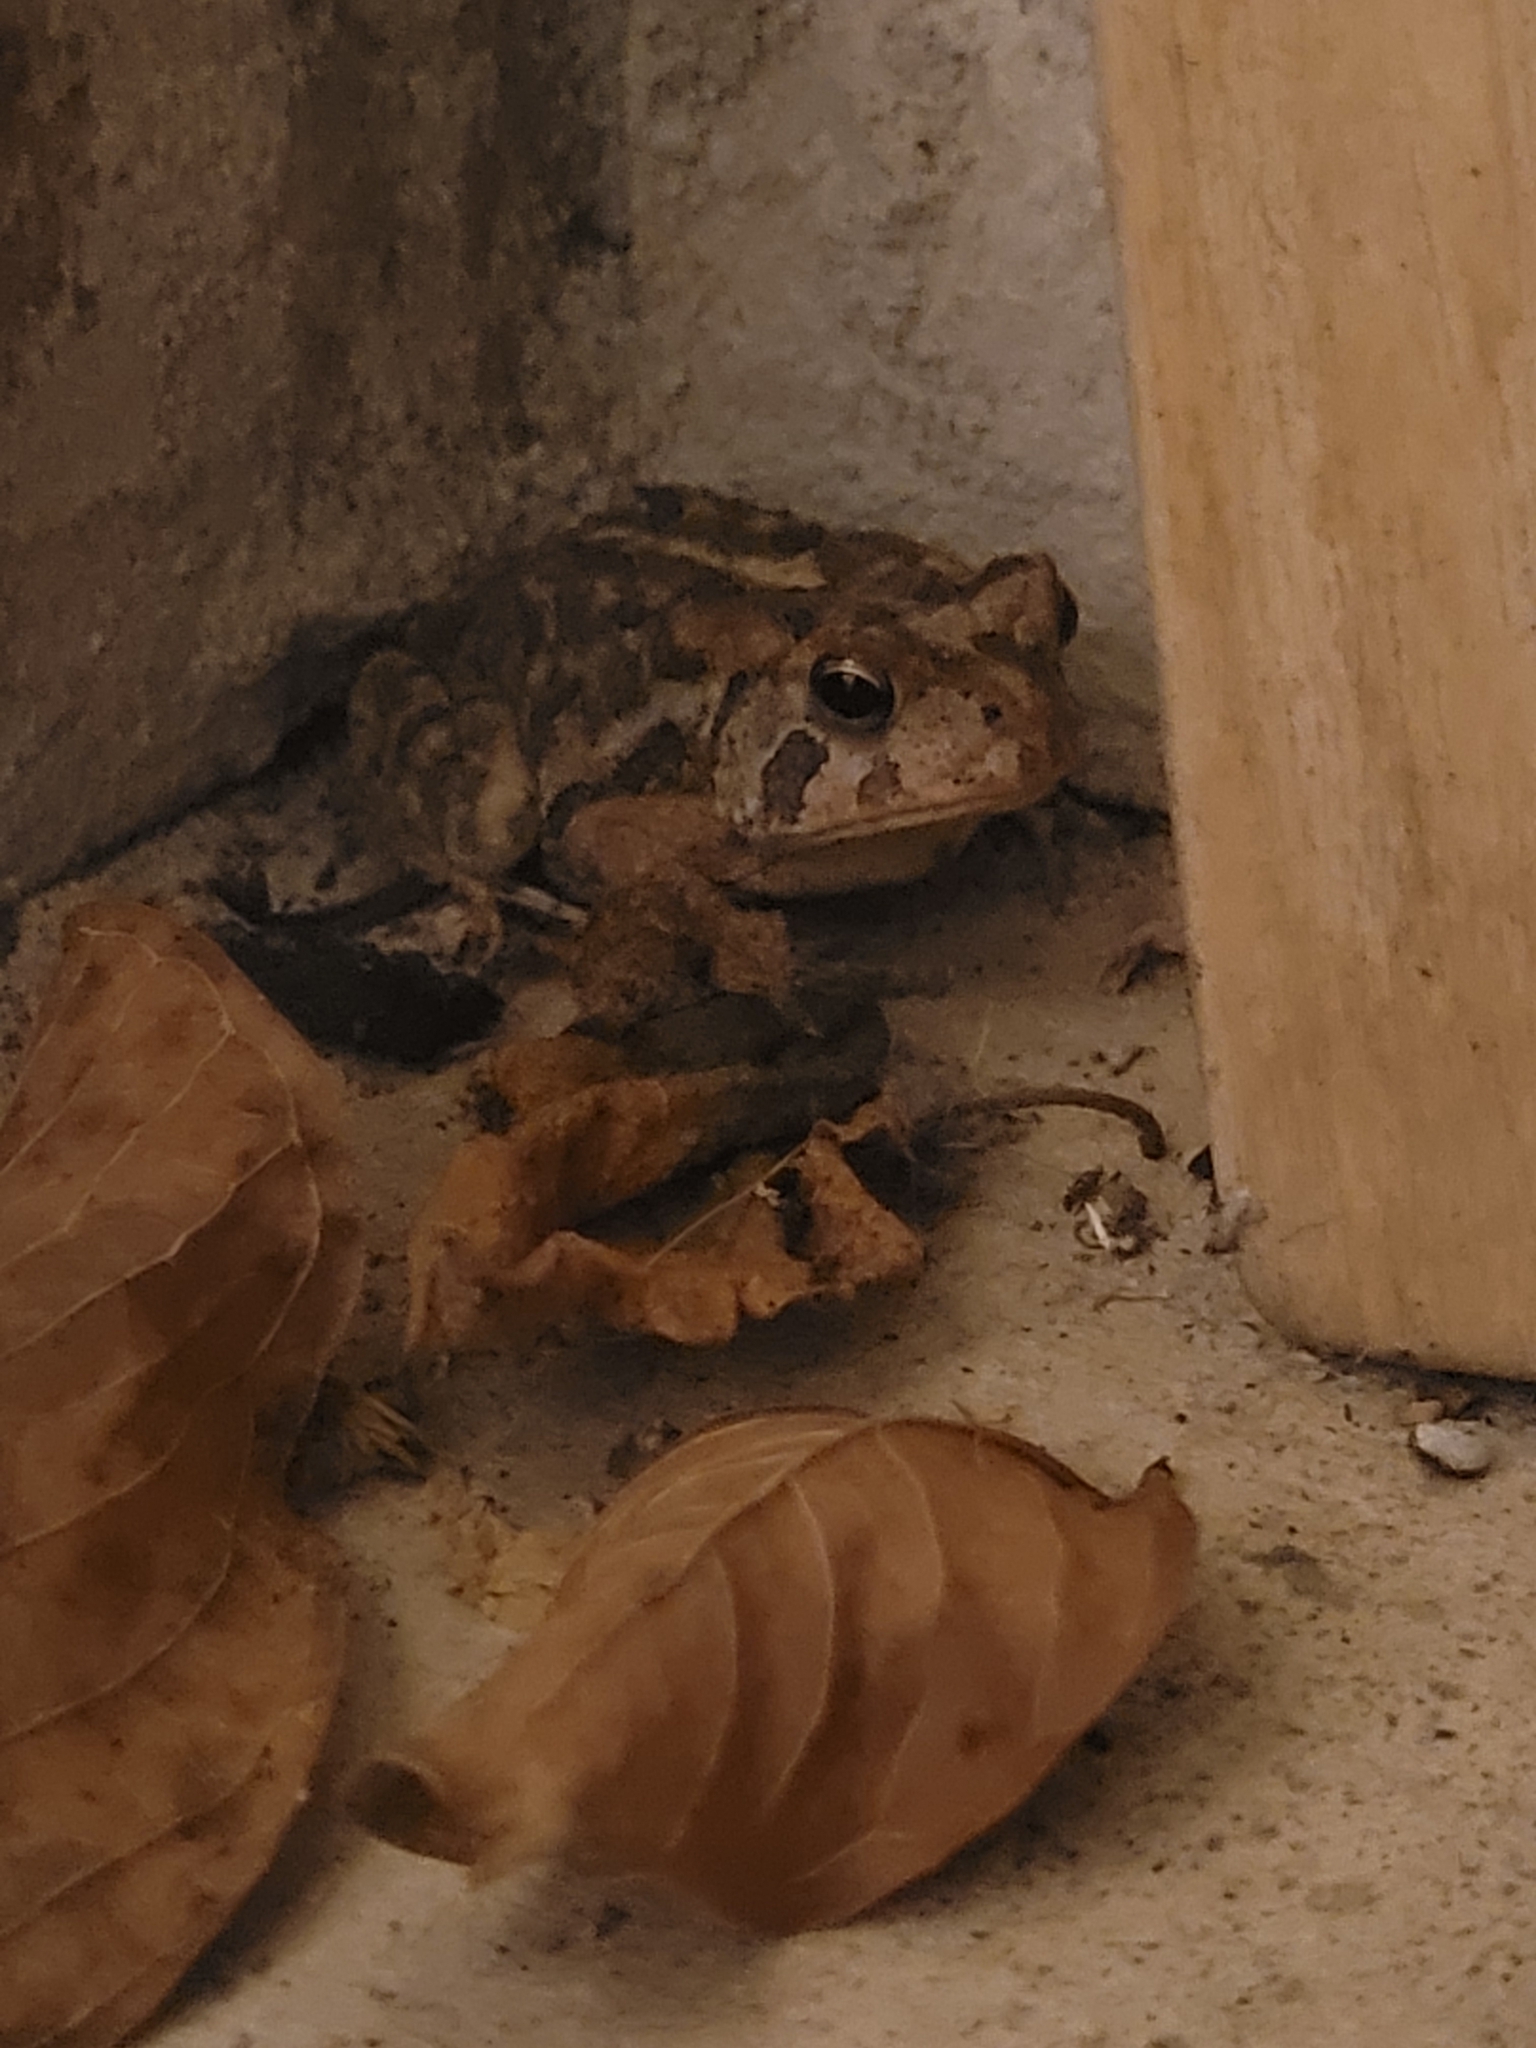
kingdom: Animalia
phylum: Chordata
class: Amphibia
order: Anura
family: Bufonidae
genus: Anaxyrus
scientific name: Anaxyrus terrestris
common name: Southern toad
